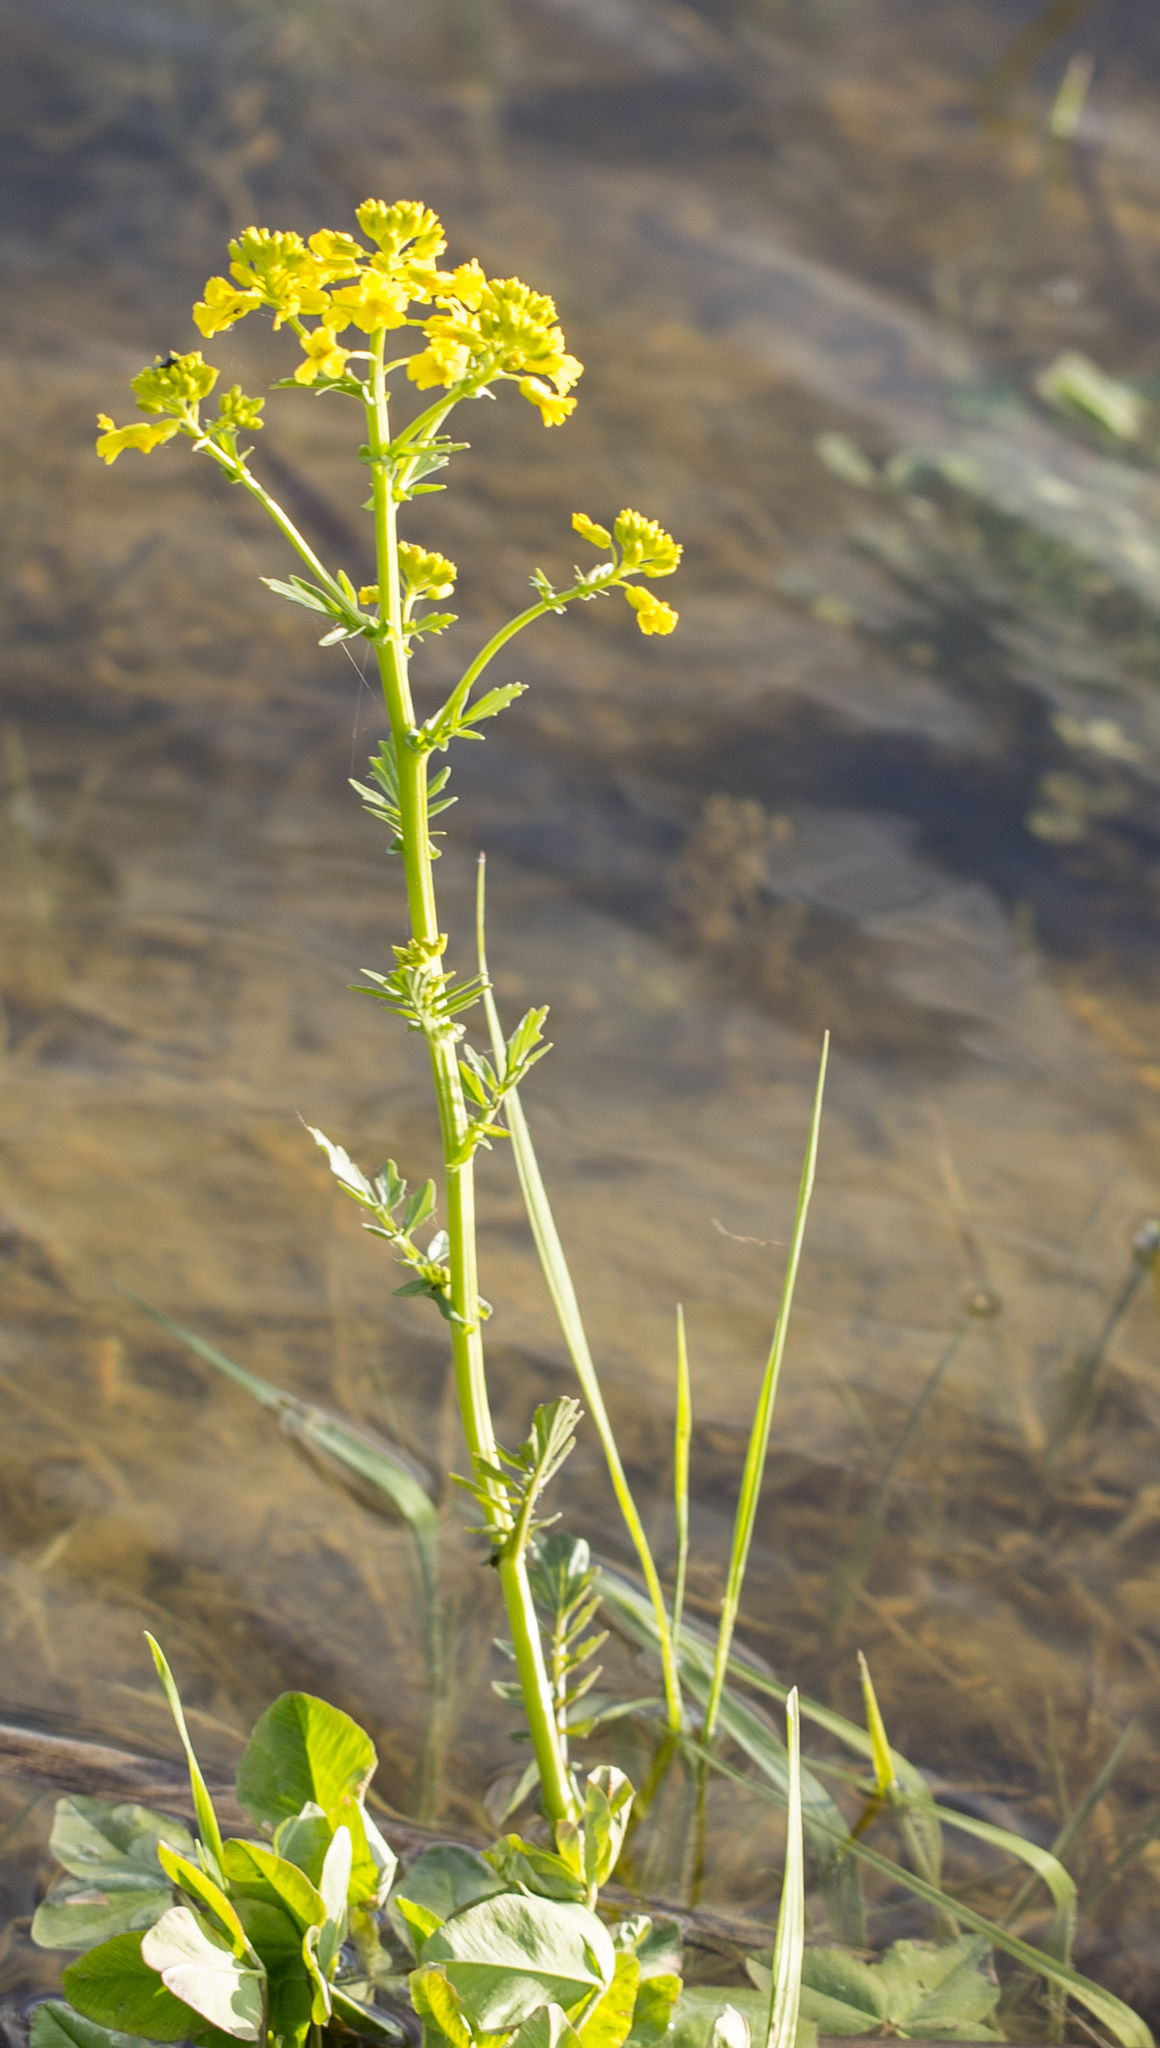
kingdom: Plantae
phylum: Tracheophyta
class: Magnoliopsida
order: Brassicales
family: Brassicaceae
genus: Barbarea
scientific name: Barbarea vulgaris
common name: Cressy-greens
